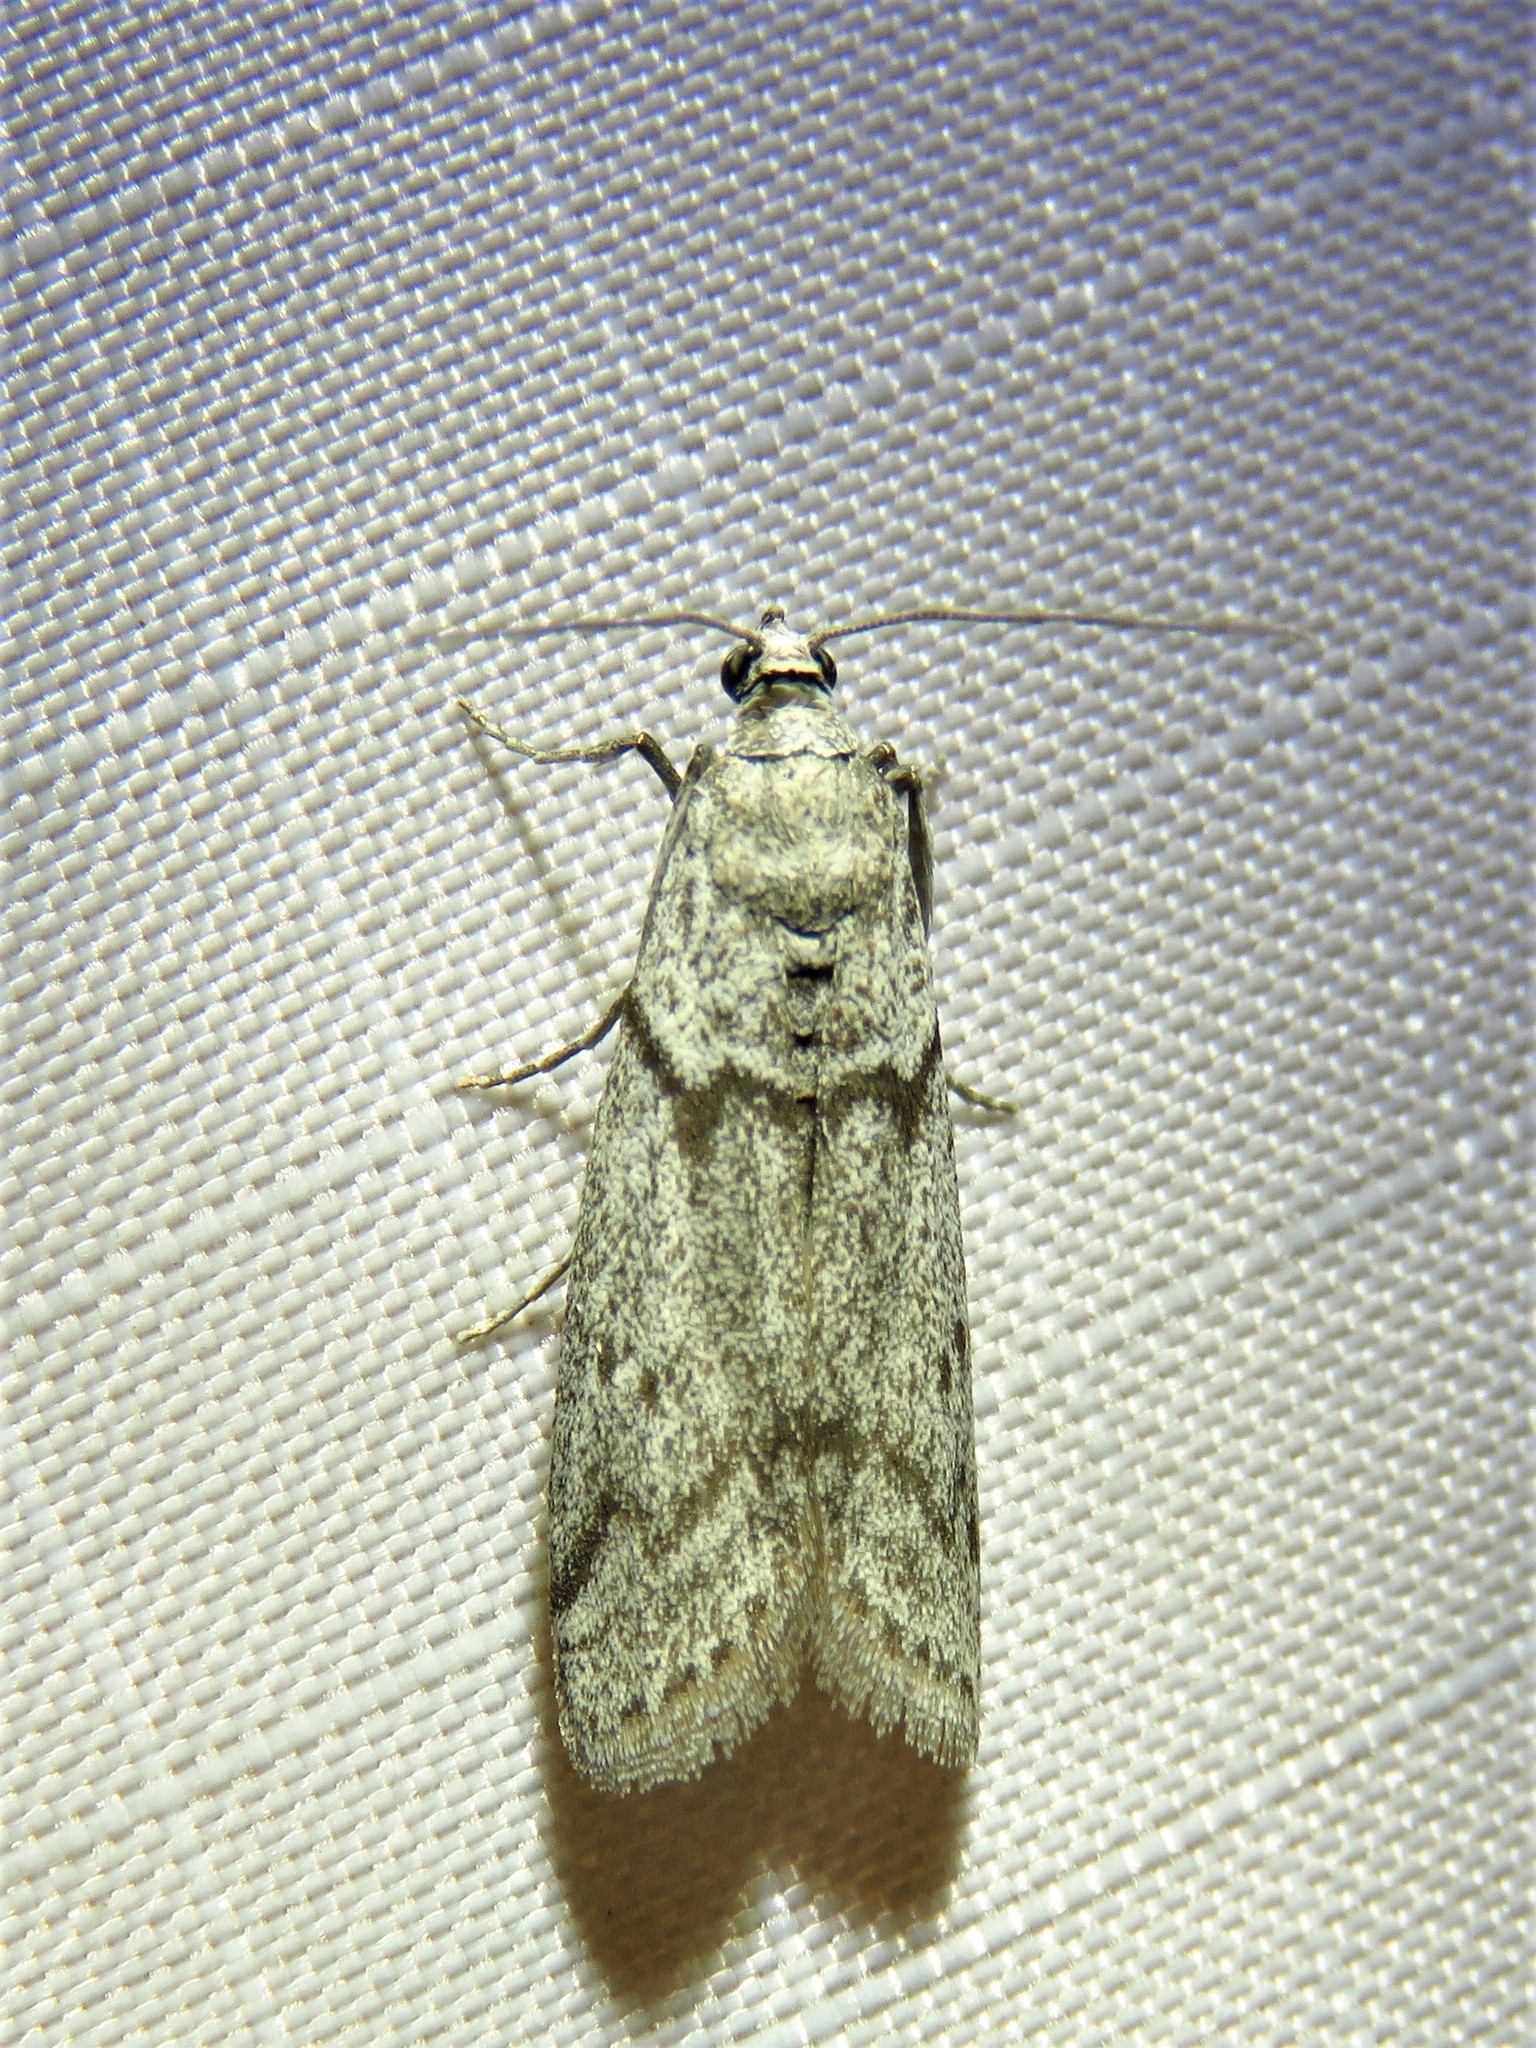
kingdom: Animalia
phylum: Arthropoda
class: Insecta
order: Lepidoptera
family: Pyralidae
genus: Myelopsis
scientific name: Myelopsis alatella
